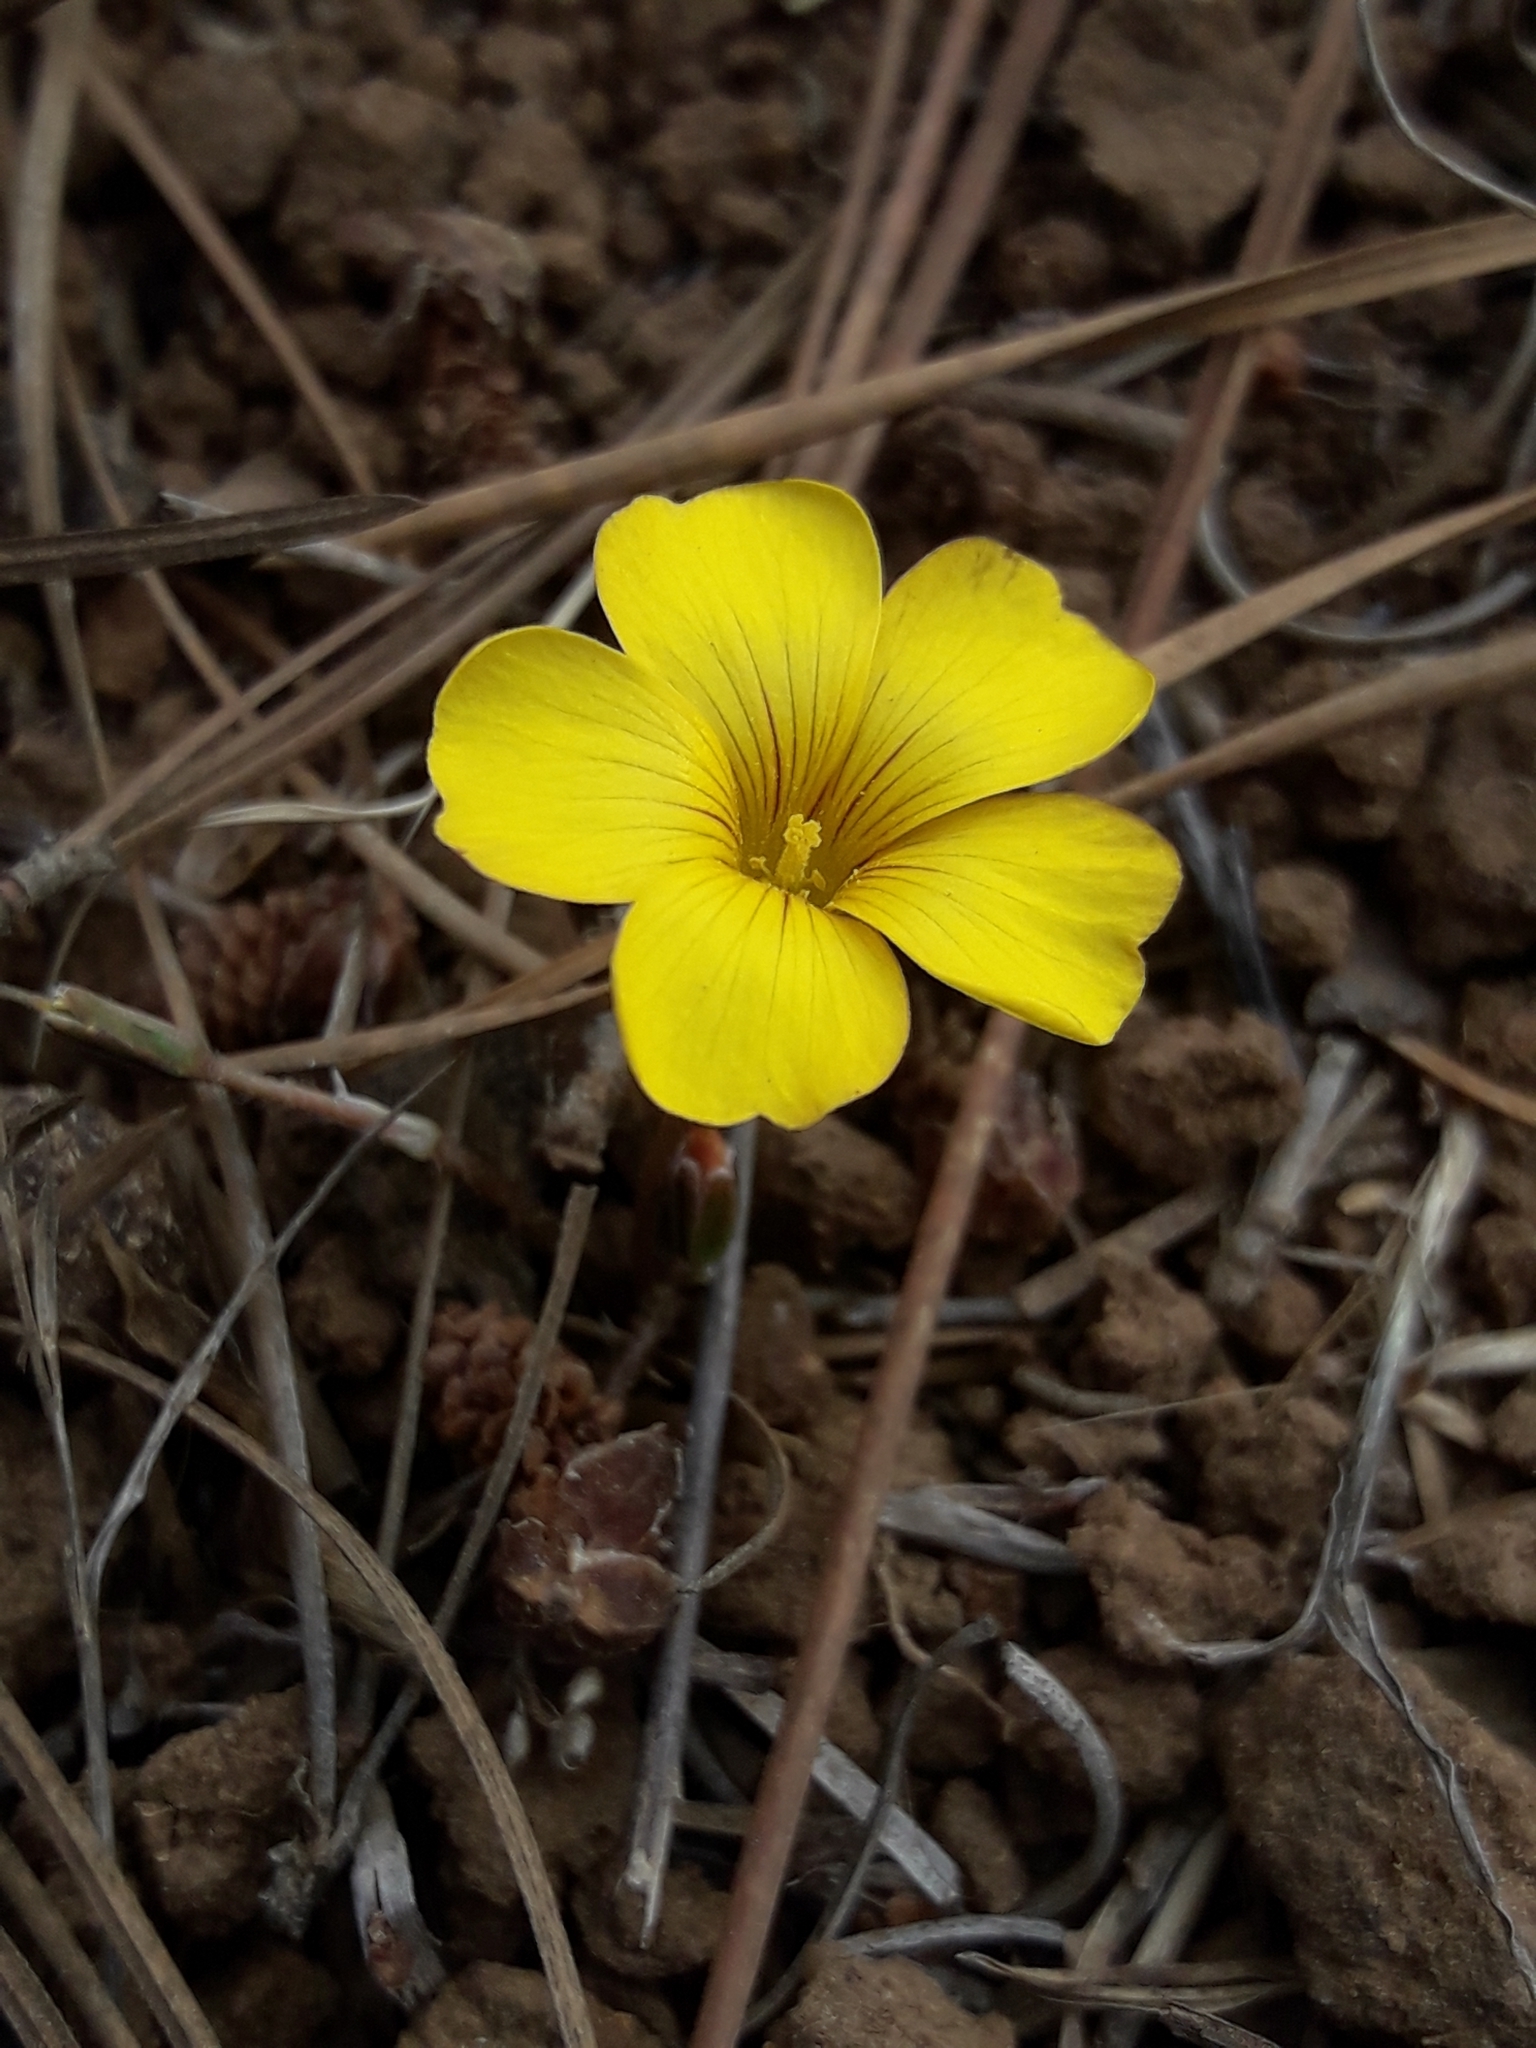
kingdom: Plantae
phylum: Tracheophyta
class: Magnoliopsida
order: Oxalidales
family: Oxalidaceae
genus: Oxalis
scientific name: Oxalis perdicaria
